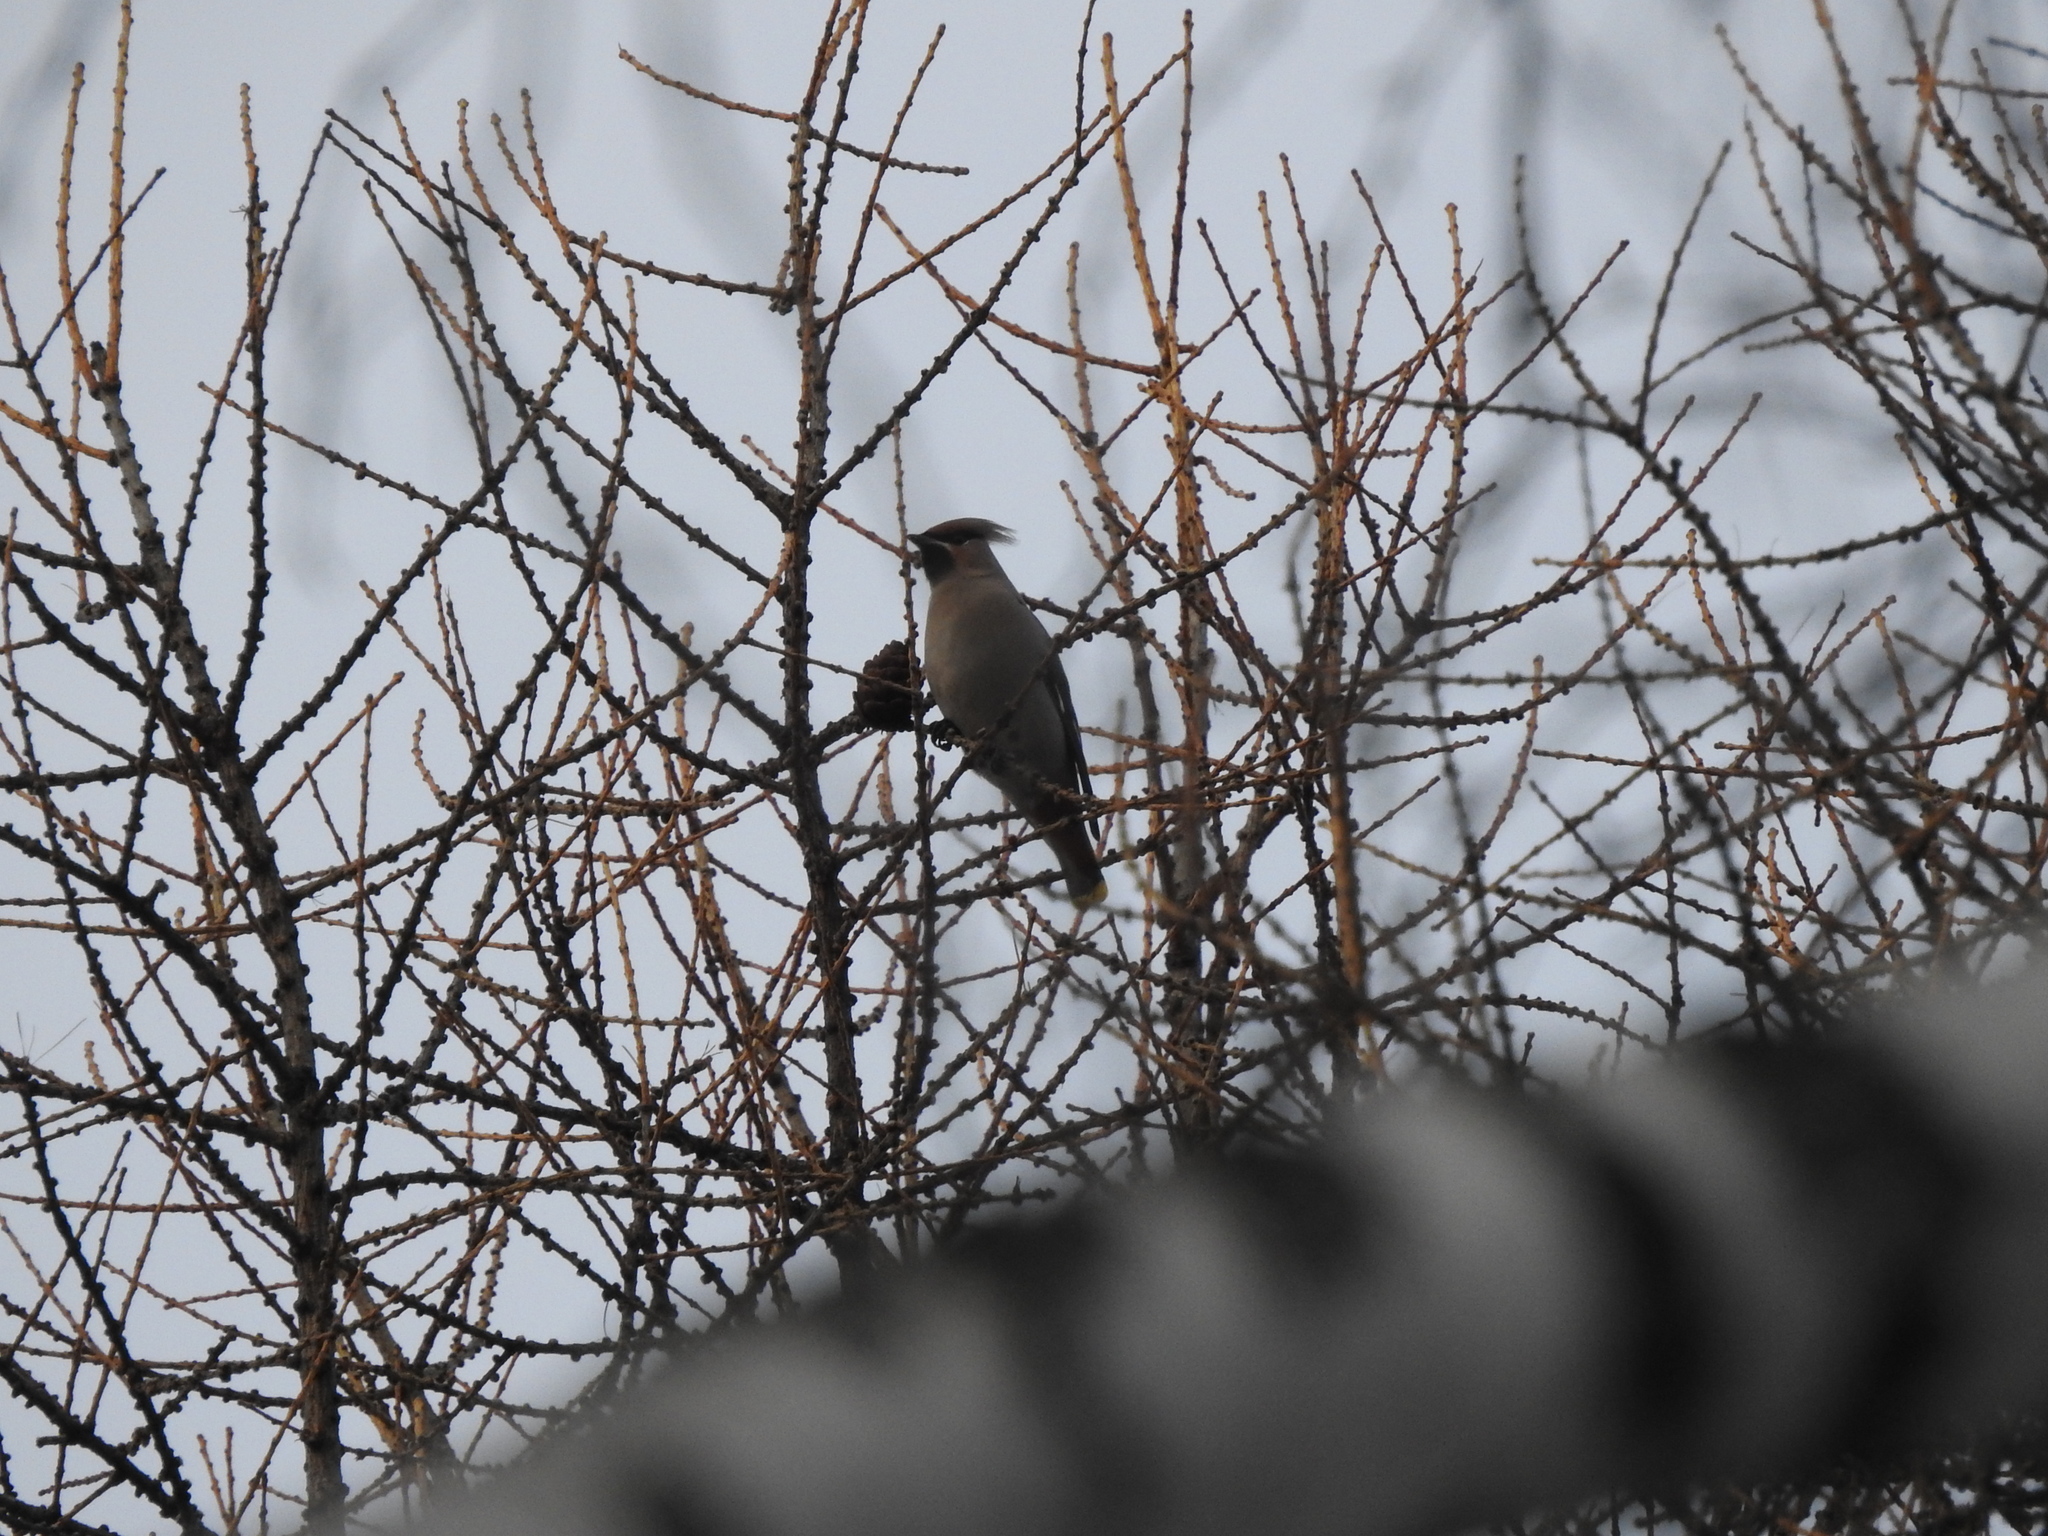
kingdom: Animalia
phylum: Chordata
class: Aves
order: Passeriformes
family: Bombycillidae
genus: Bombycilla
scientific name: Bombycilla garrulus
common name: Bohemian waxwing
